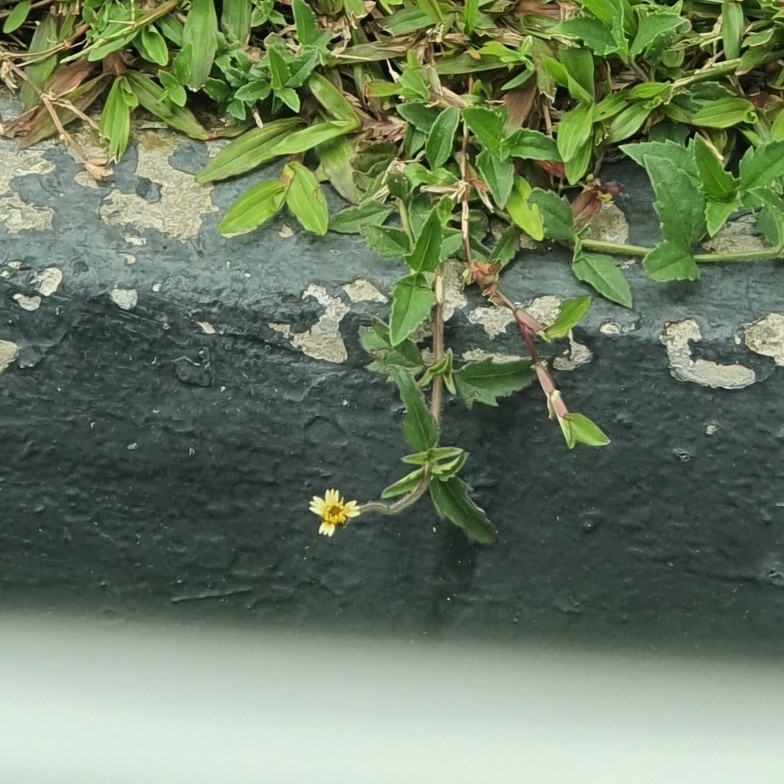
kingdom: Plantae
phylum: Tracheophyta
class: Magnoliopsida
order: Asterales
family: Asteraceae
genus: Tridax
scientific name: Tridax procumbens
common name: Coatbuttons
